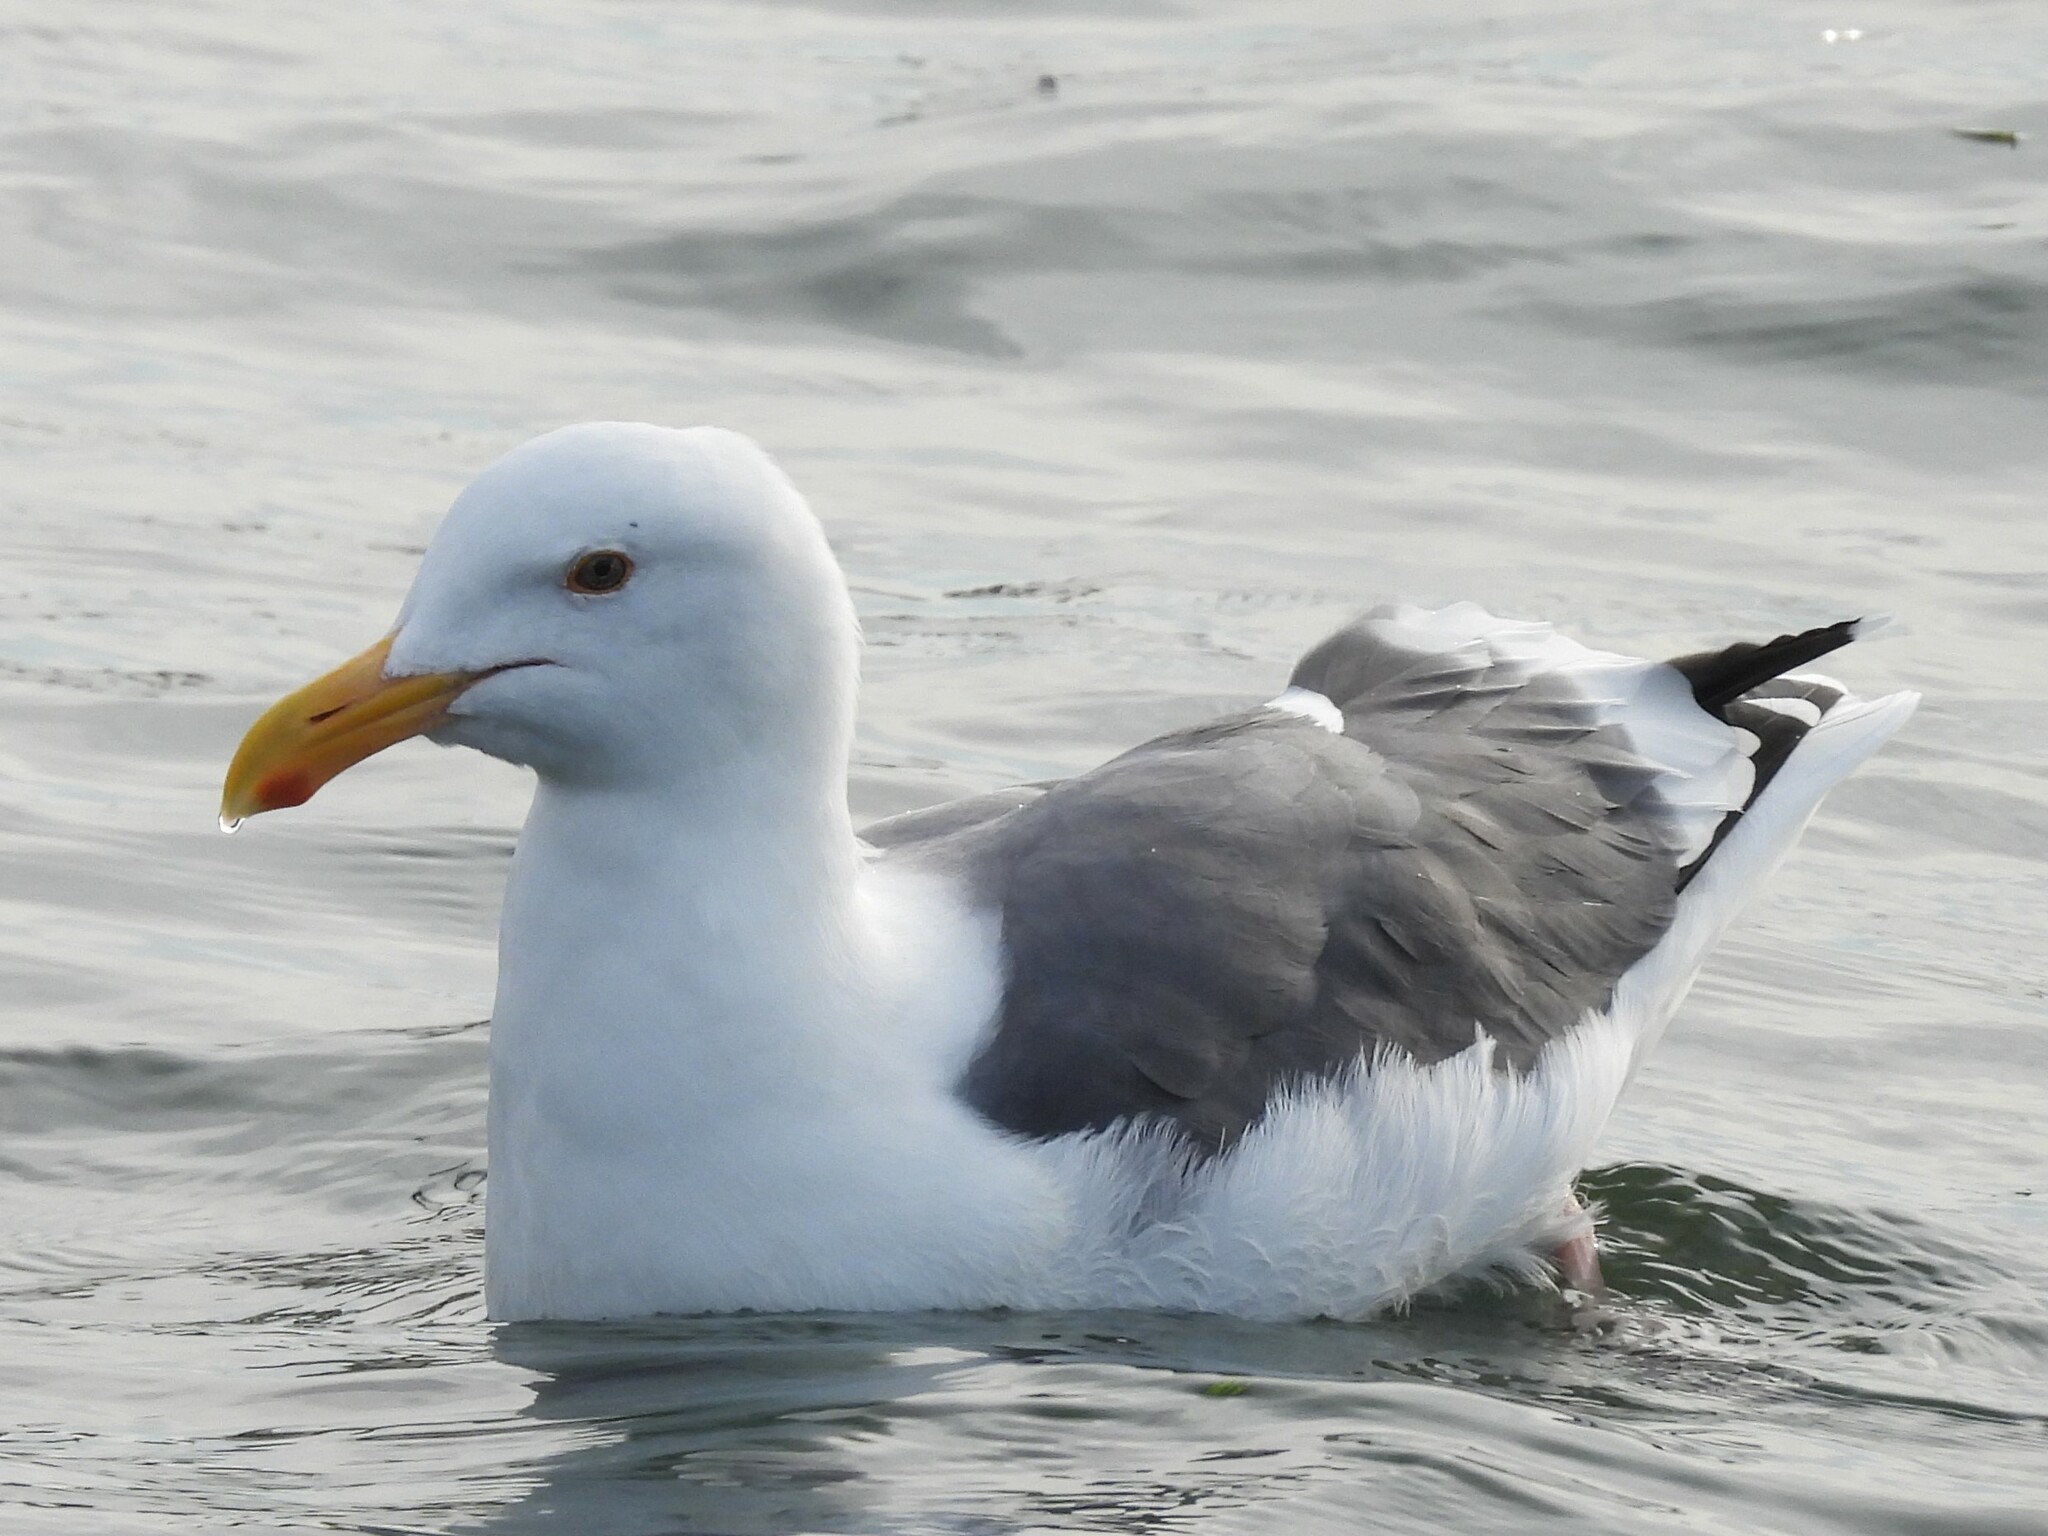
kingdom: Animalia
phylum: Chordata
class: Aves
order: Charadriiformes
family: Laridae
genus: Larus
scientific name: Larus occidentalis
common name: Western gull
